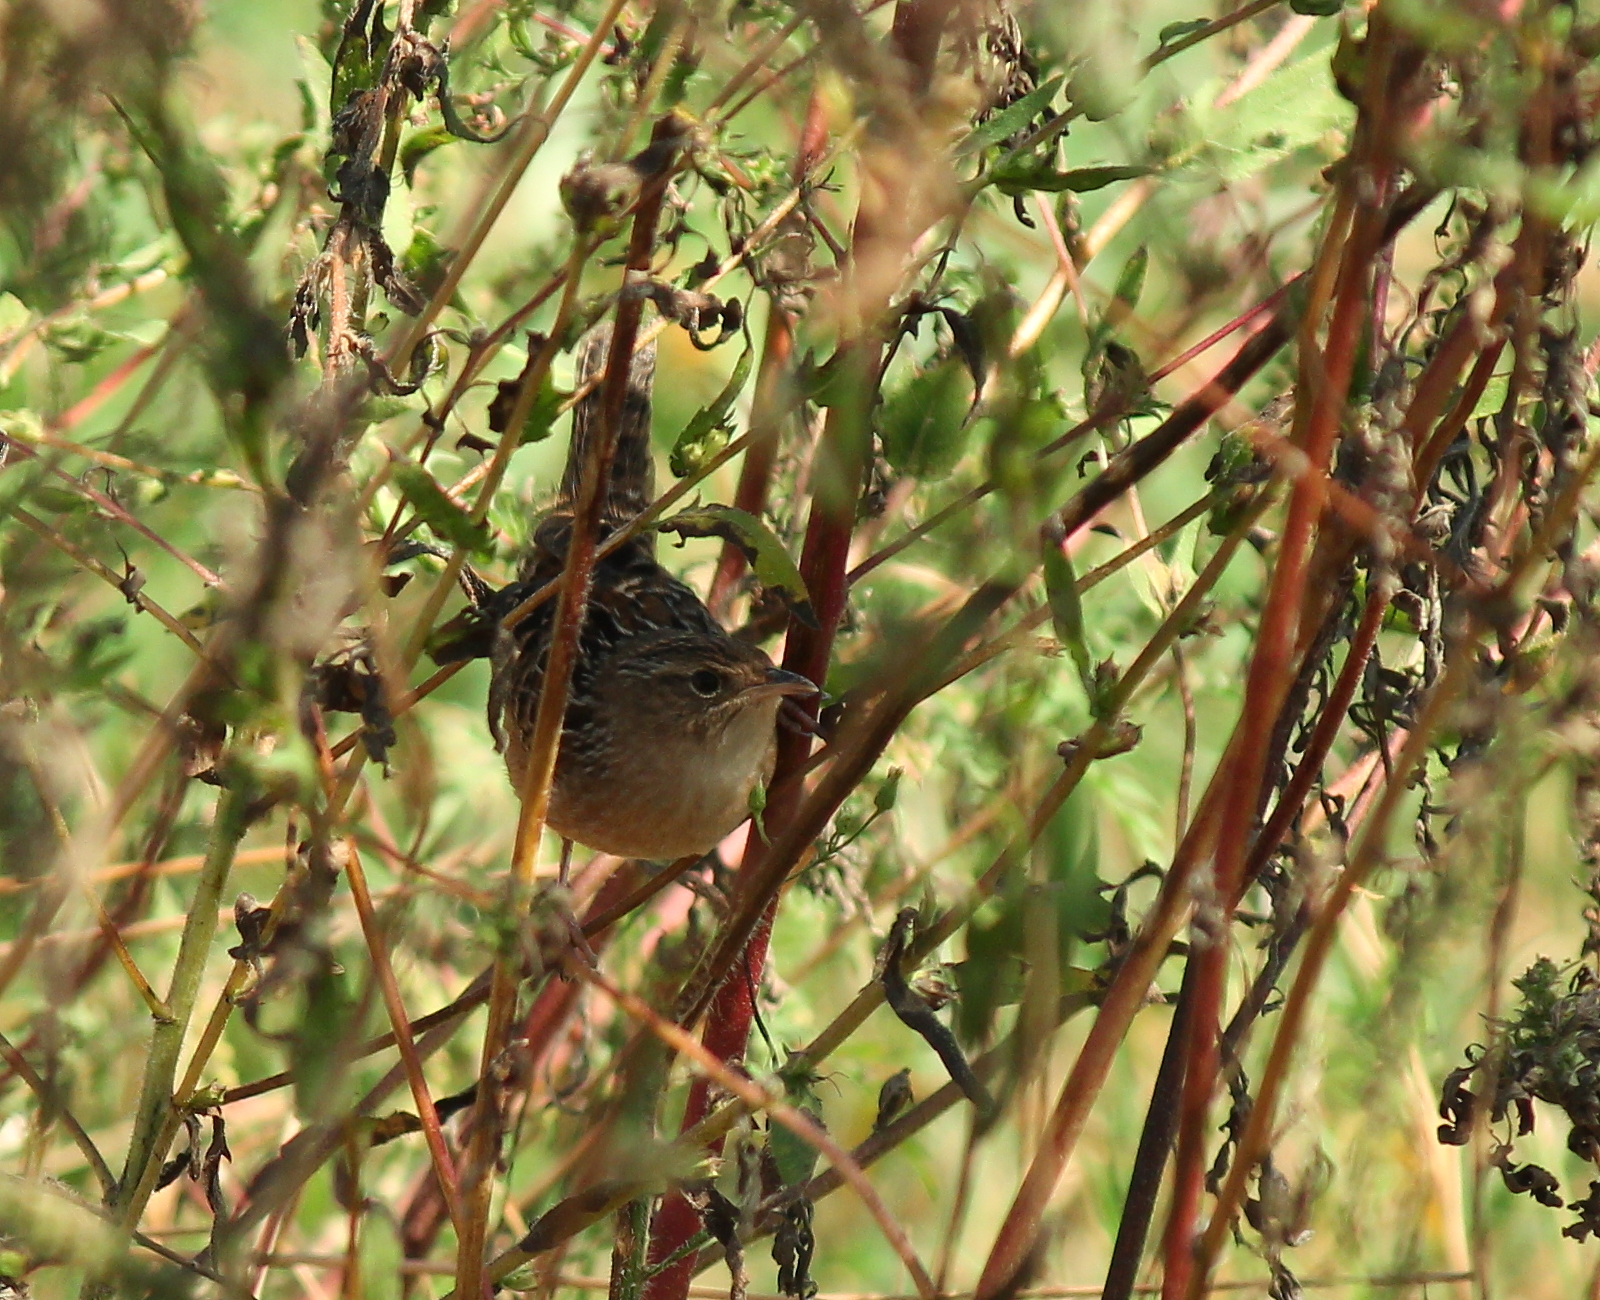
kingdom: Animalia
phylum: Chordata
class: Aves
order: Passeriformes
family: Troglodytidae
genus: Cistothorus
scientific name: Cistothorus platensis
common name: Sedge wren
